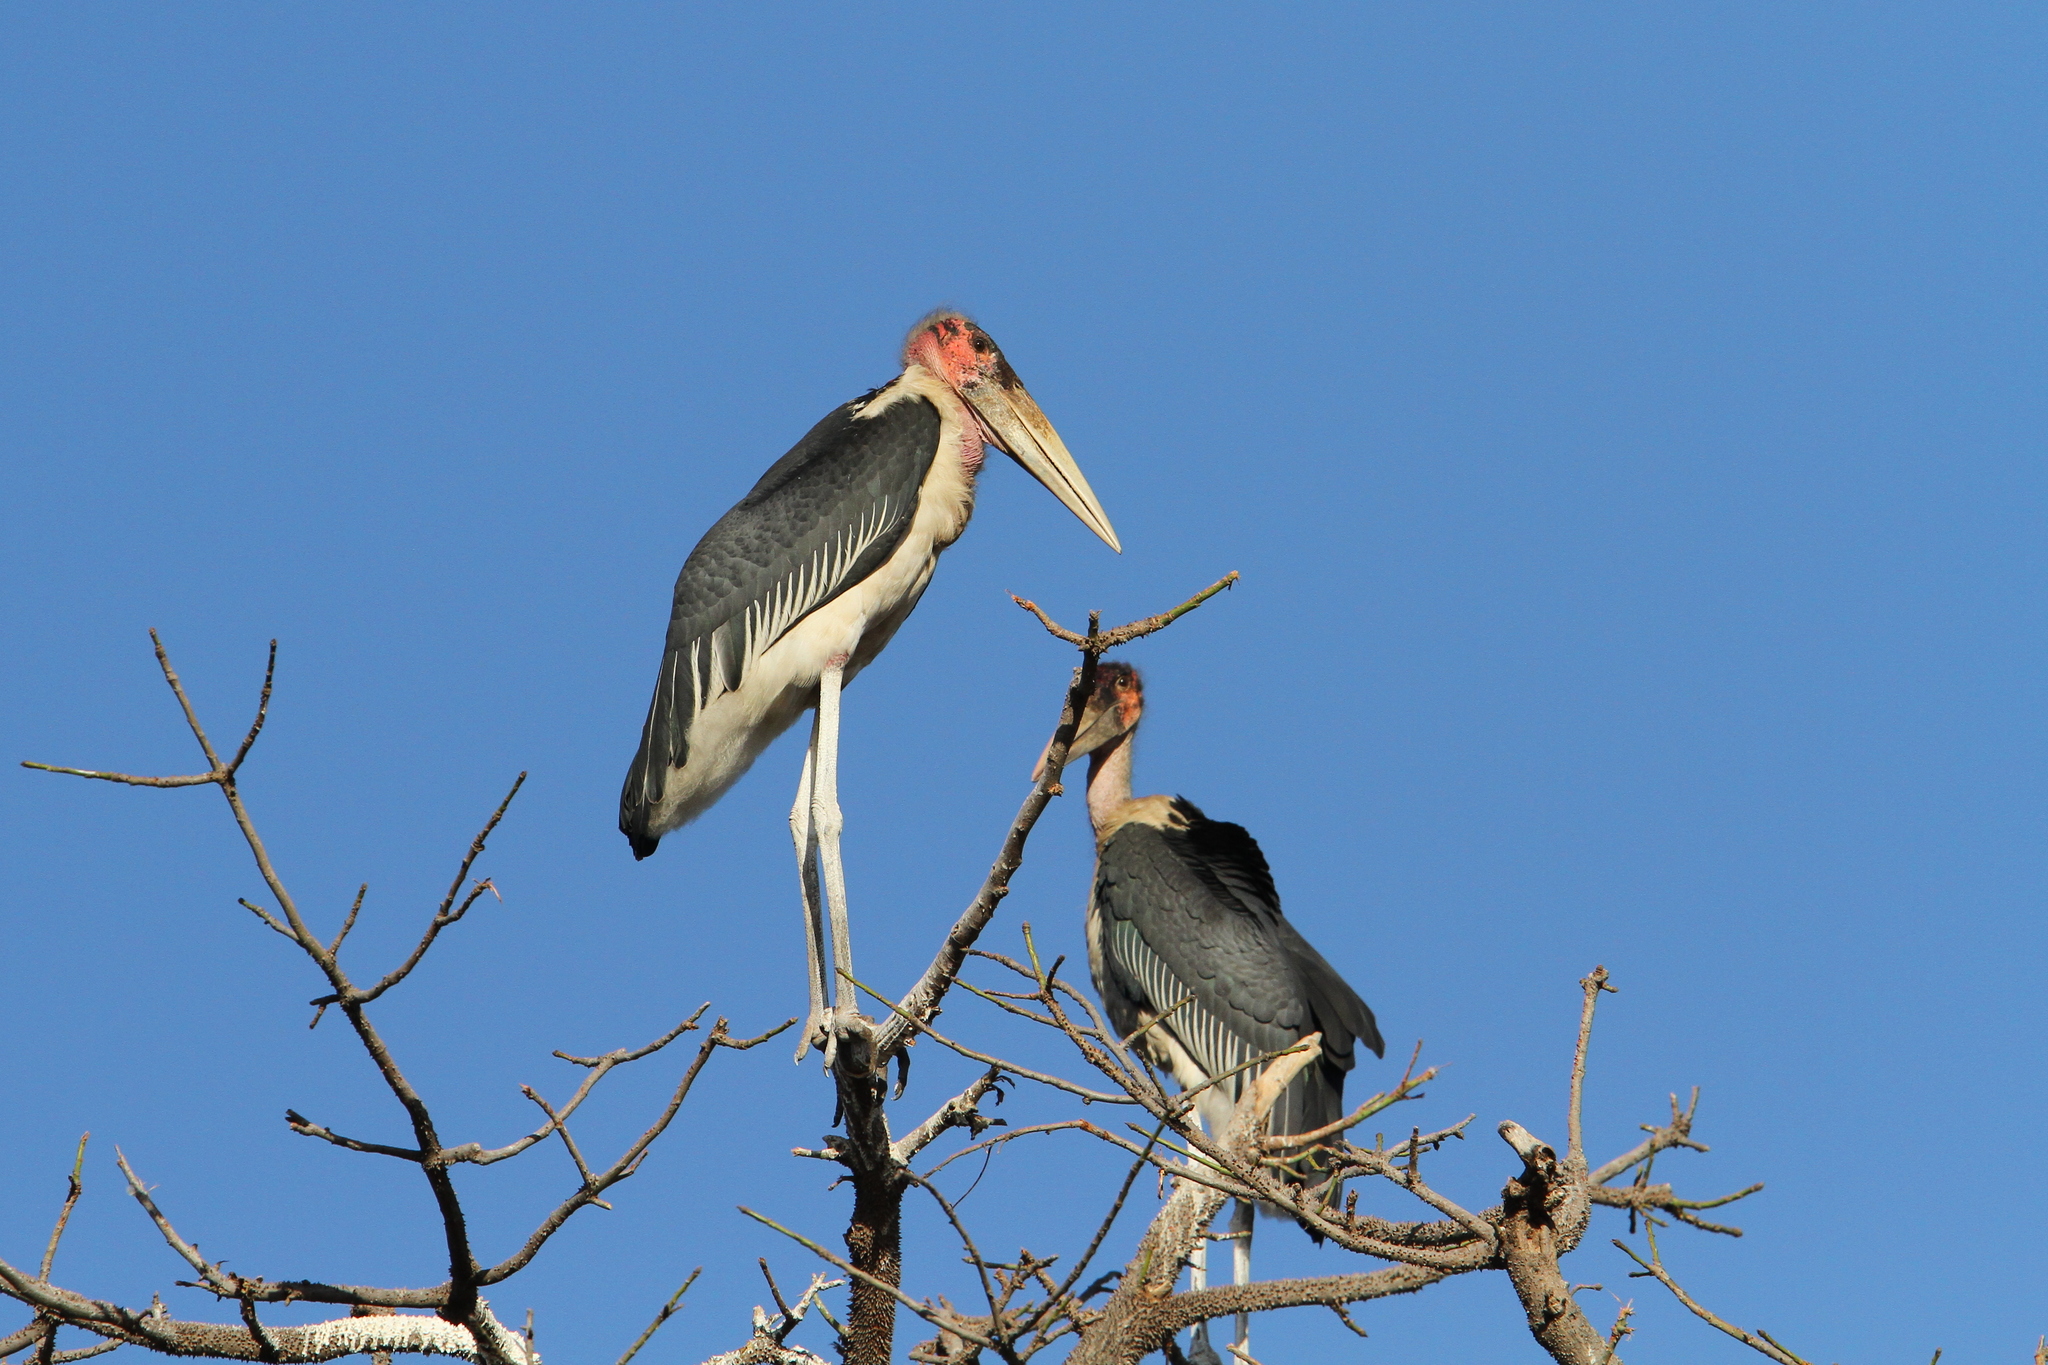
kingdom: Animalia
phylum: Chordata
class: Aves
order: Ciconiiformes
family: Ciconiidae
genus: Leptoptilos
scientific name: Leptoptilos crumenifer
